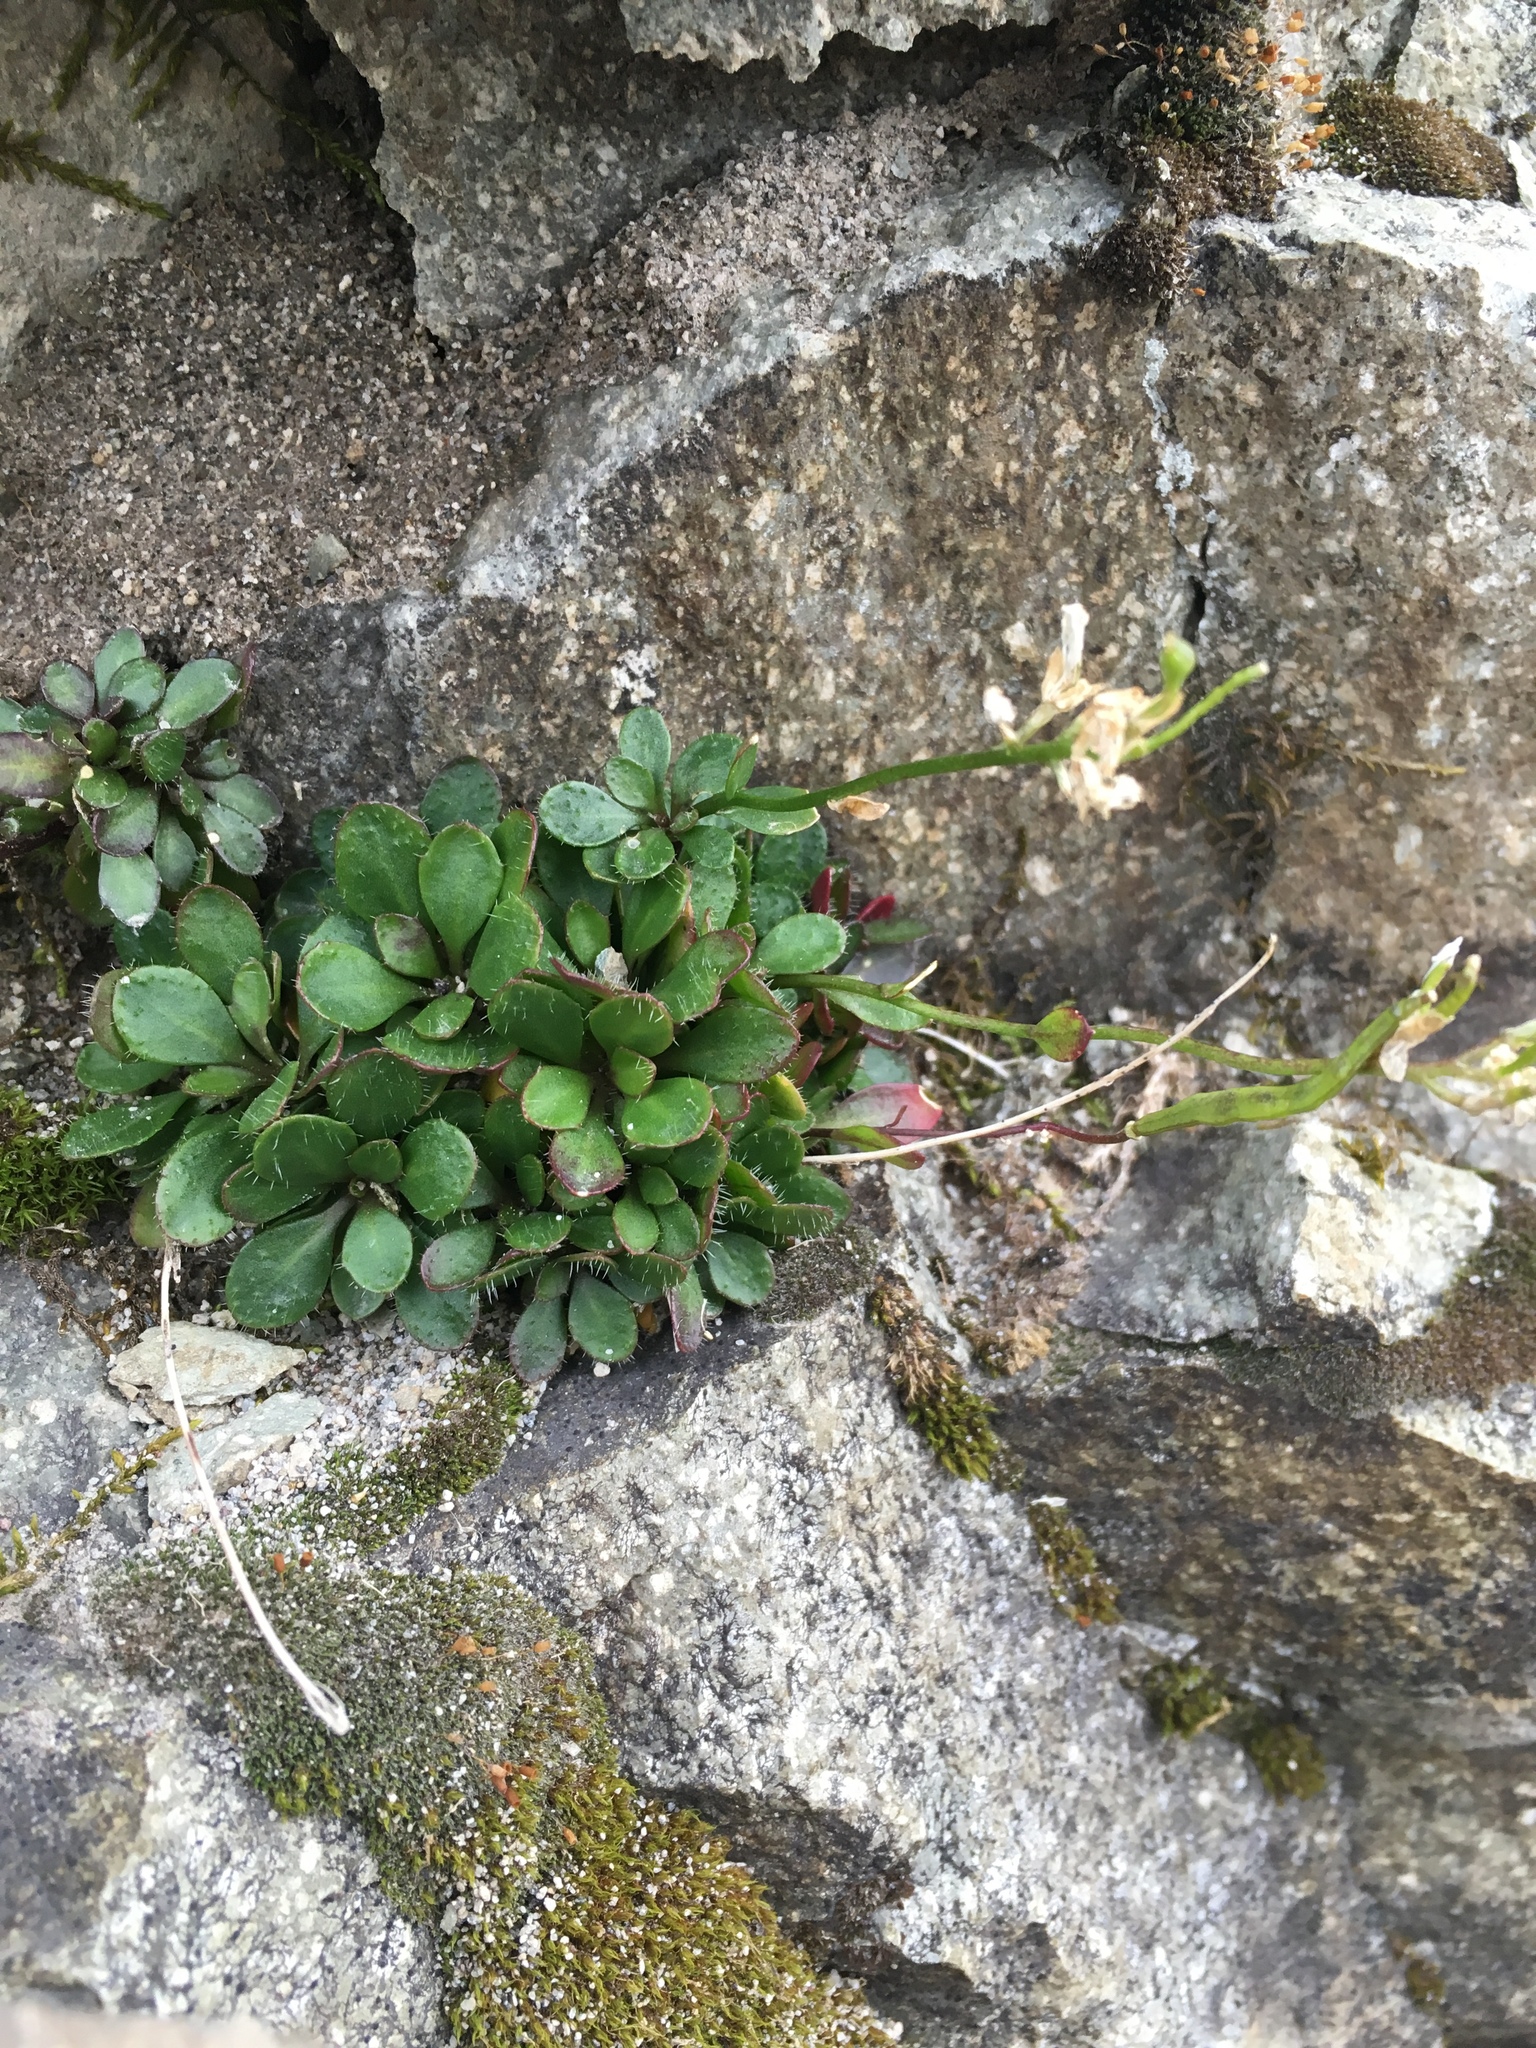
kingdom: Plantae
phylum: Tracheophyta
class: Magnoliopsida
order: Brassicales
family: Brassicaceae
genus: Arabis
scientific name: Arabis furcata
